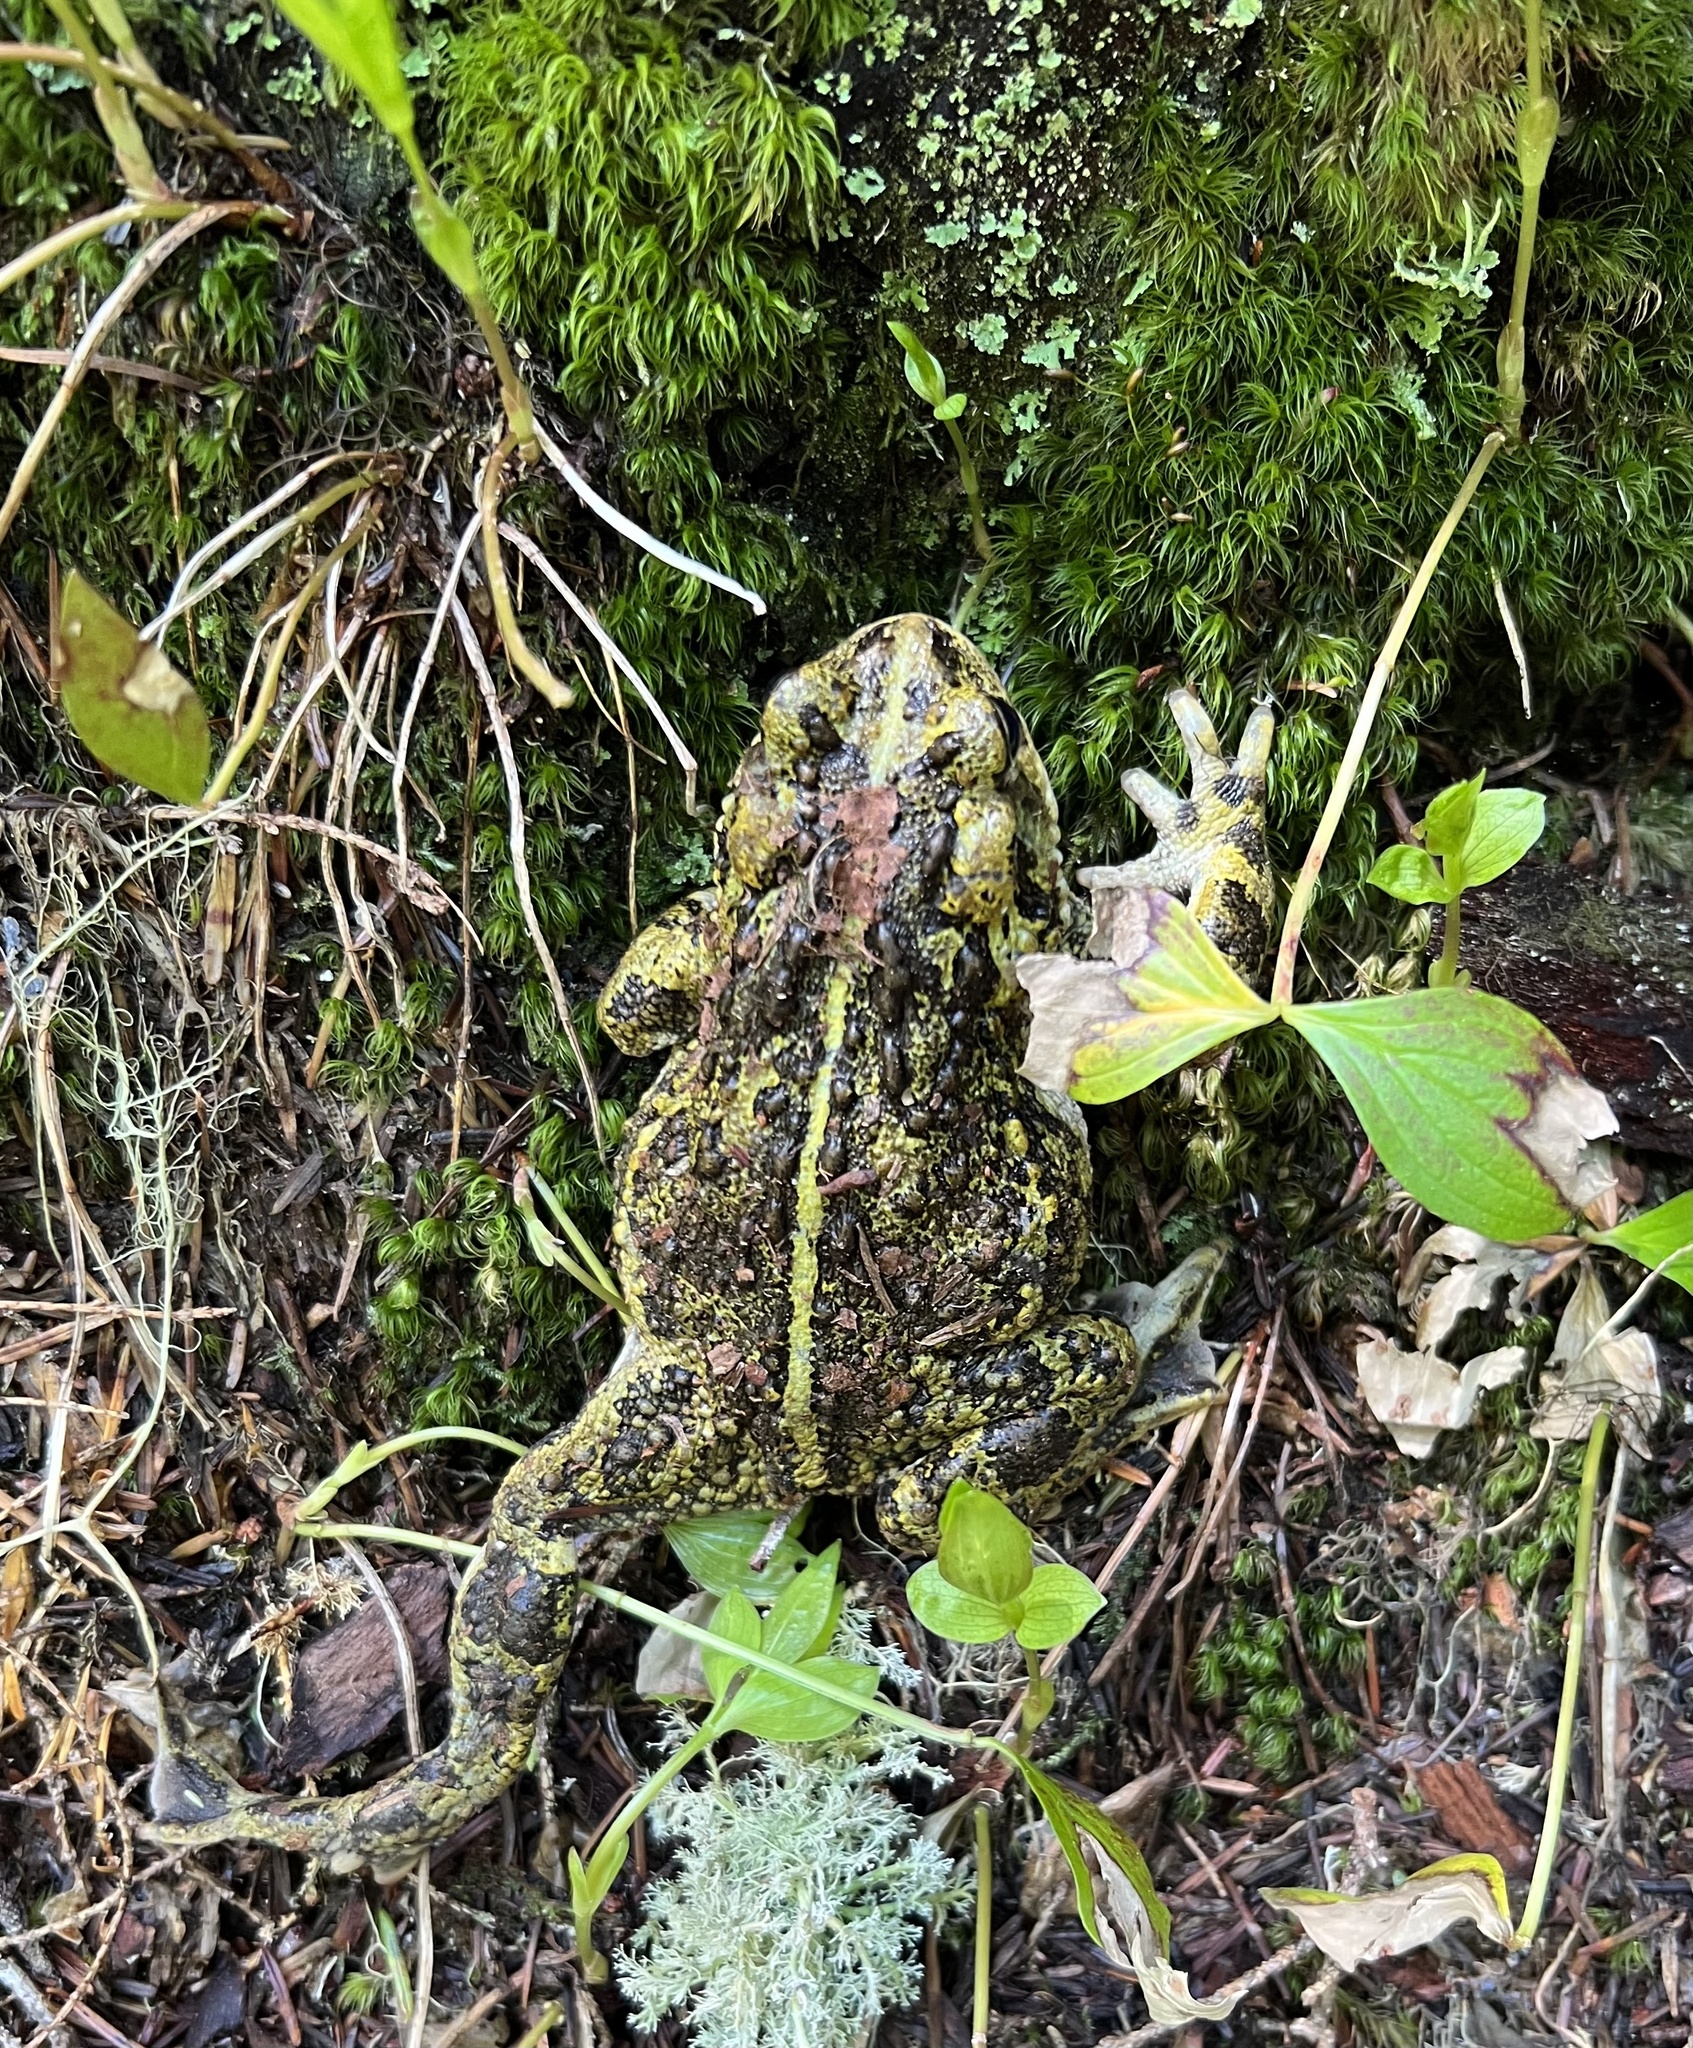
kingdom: Animalia
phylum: Chordata
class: Amphibia
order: Anura
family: Bufonidae
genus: Anaxyrus
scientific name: Anaxyrus boreas
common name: Western toad
